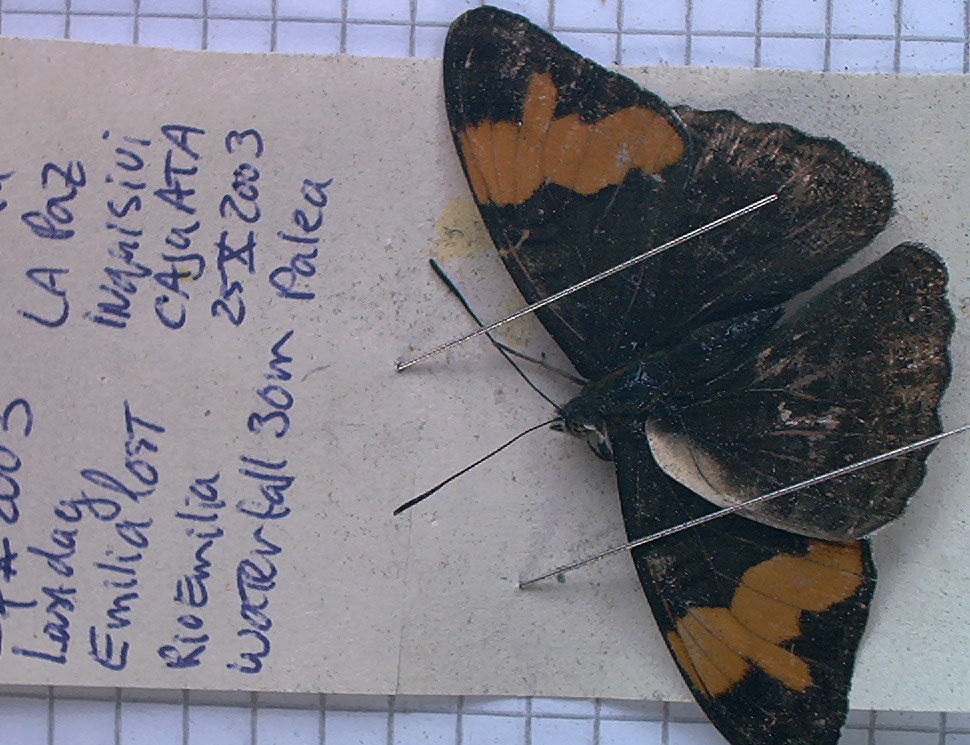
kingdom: Animalia
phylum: Arthropoda
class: Insecta
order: Lepidoptera
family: Nymphalidae
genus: Limenitis
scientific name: Limenitis saundersii
